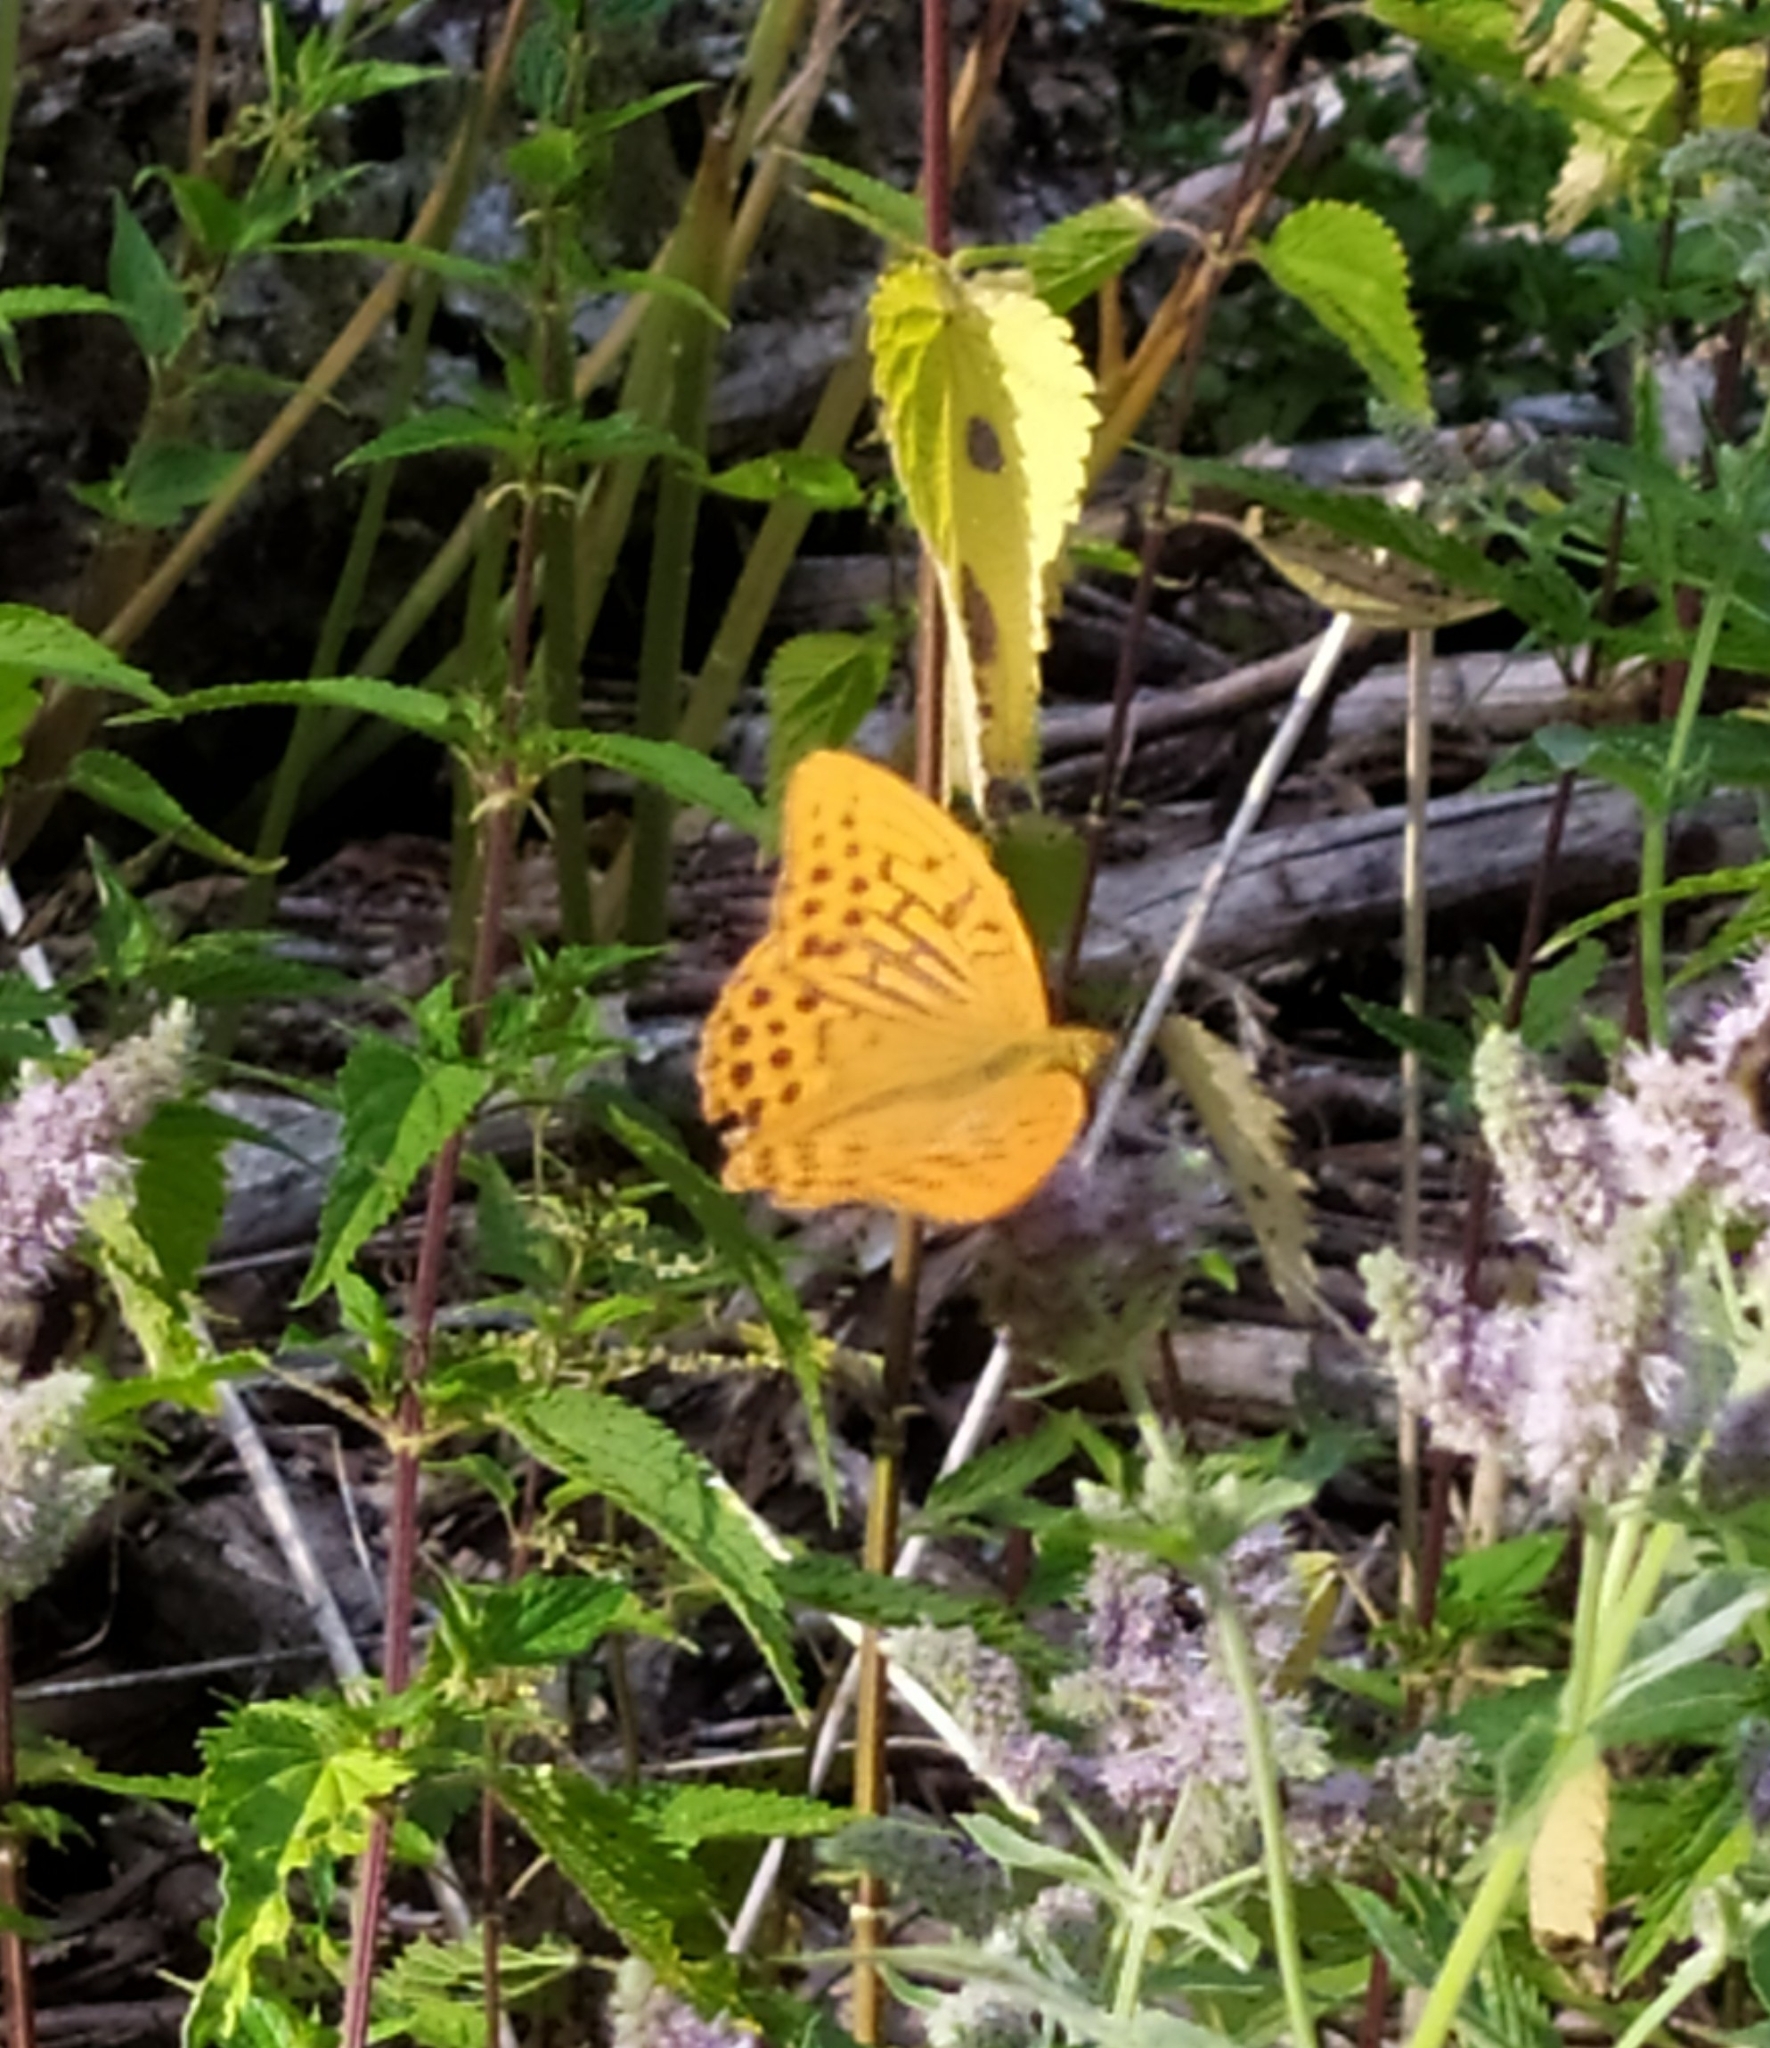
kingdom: Animalia
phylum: Arthropoda
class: Insecta
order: Lepidoptera
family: Nymphalidae
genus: Argynnis
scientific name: Argynnis paphia
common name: Silver-washed fritillary
